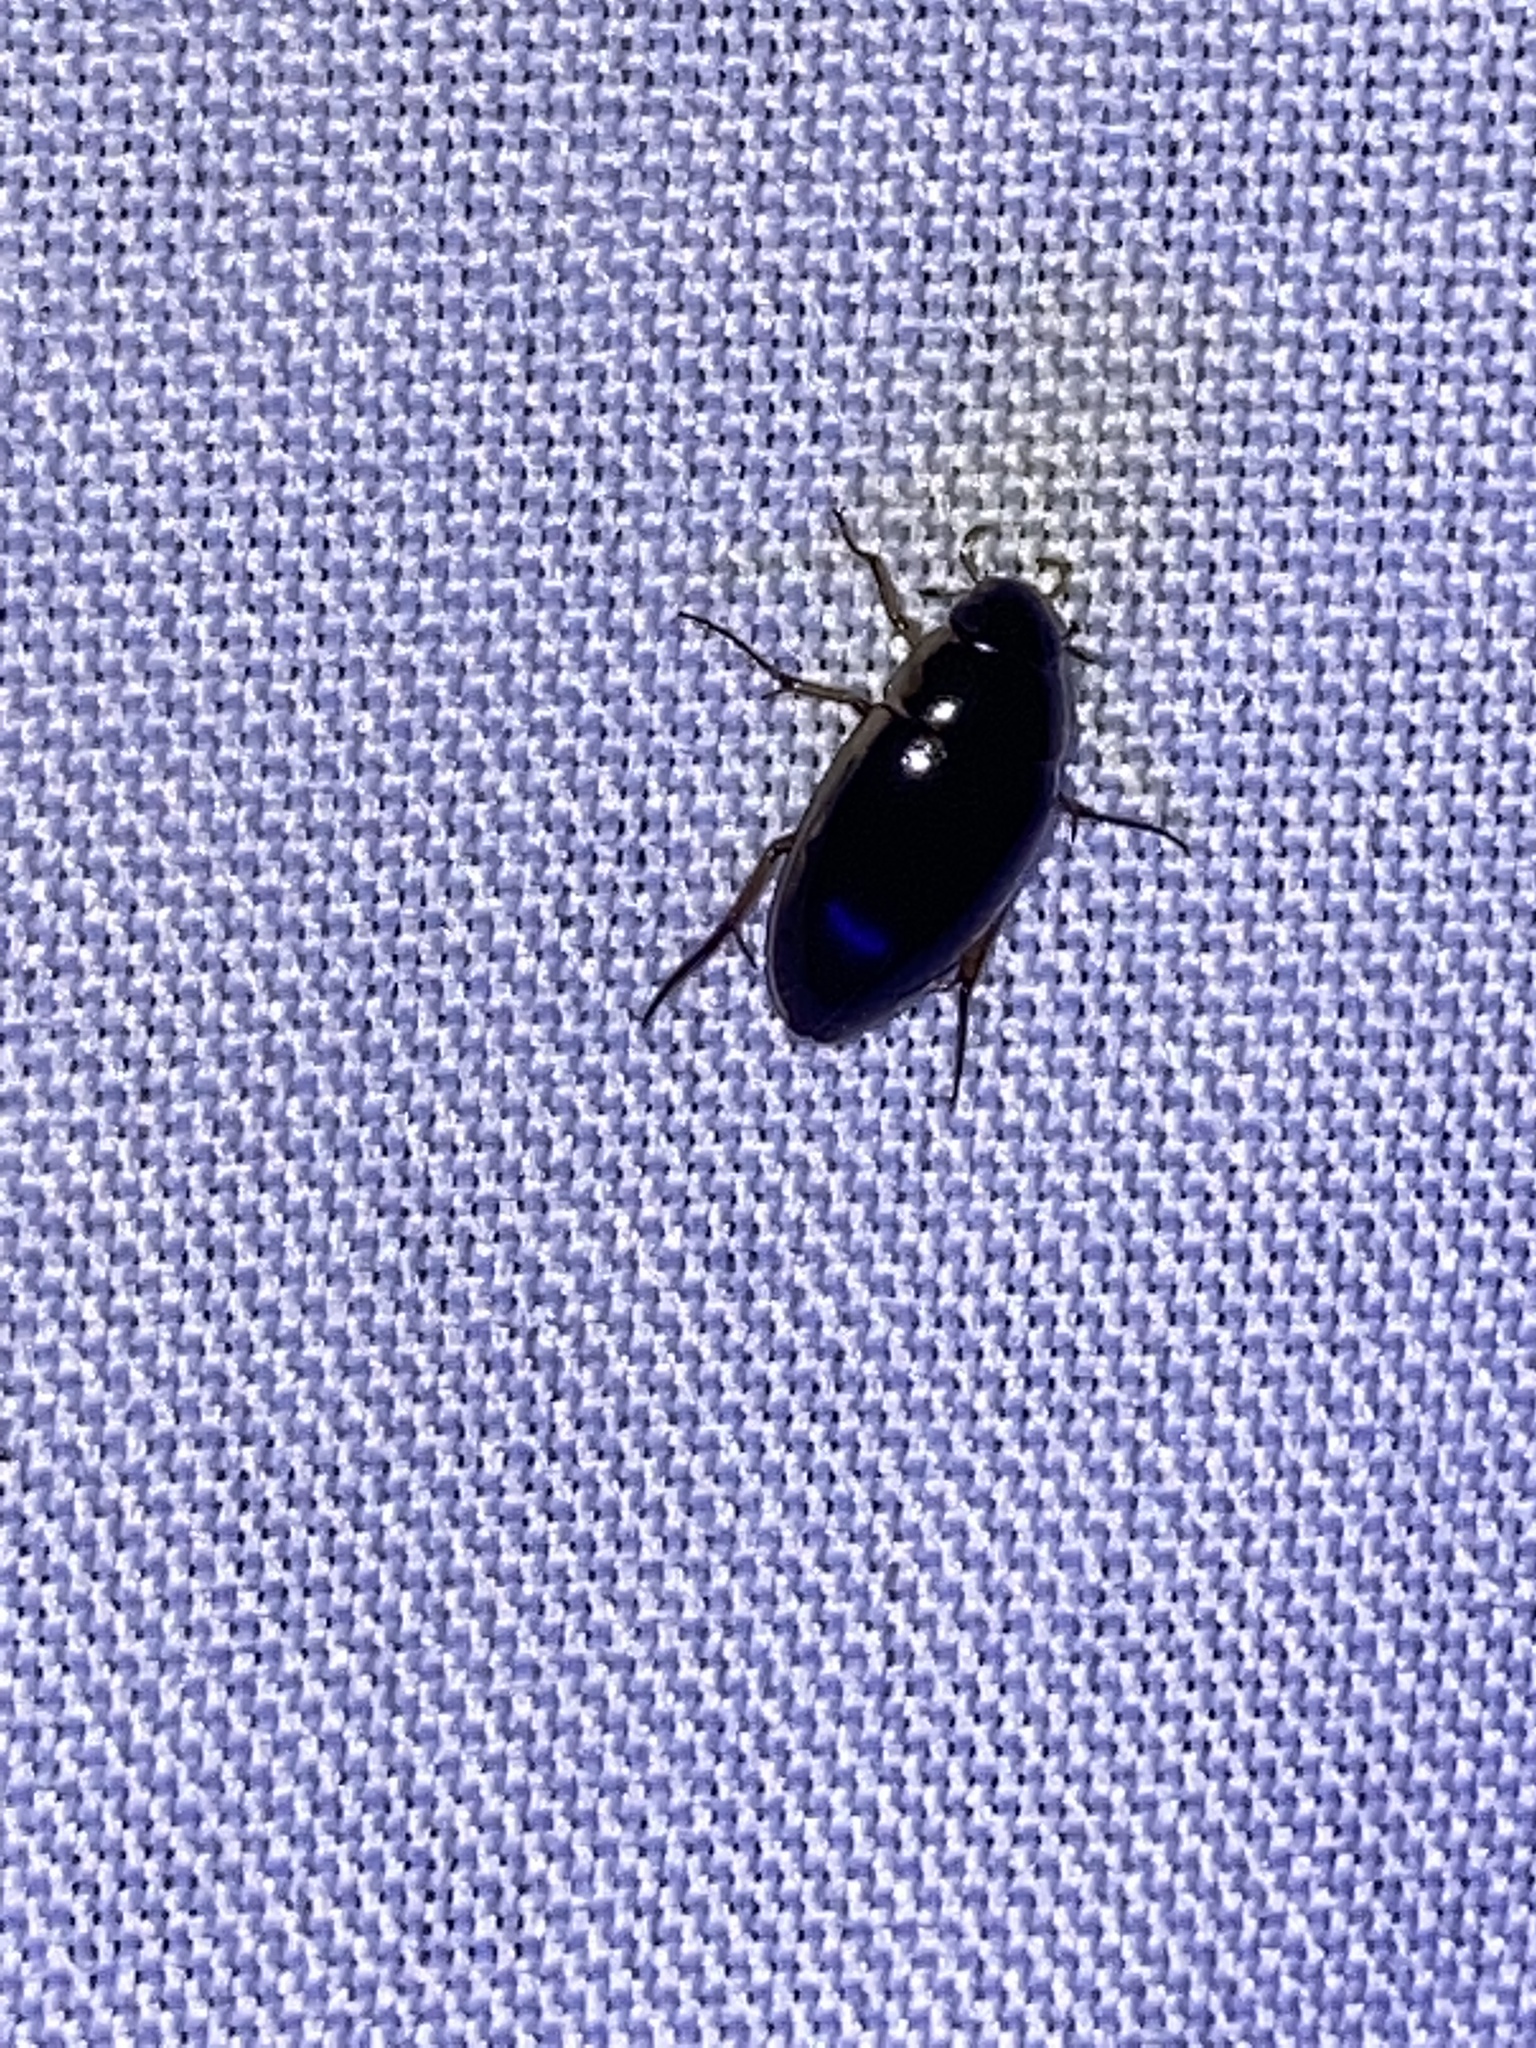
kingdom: Animalia
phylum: Arthropoda
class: Insecta
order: Coleoptera
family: Hydrophilidae
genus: Tropisternus
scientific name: Tropisternus lateralis
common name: Lateral-banded water scavenger beetle
